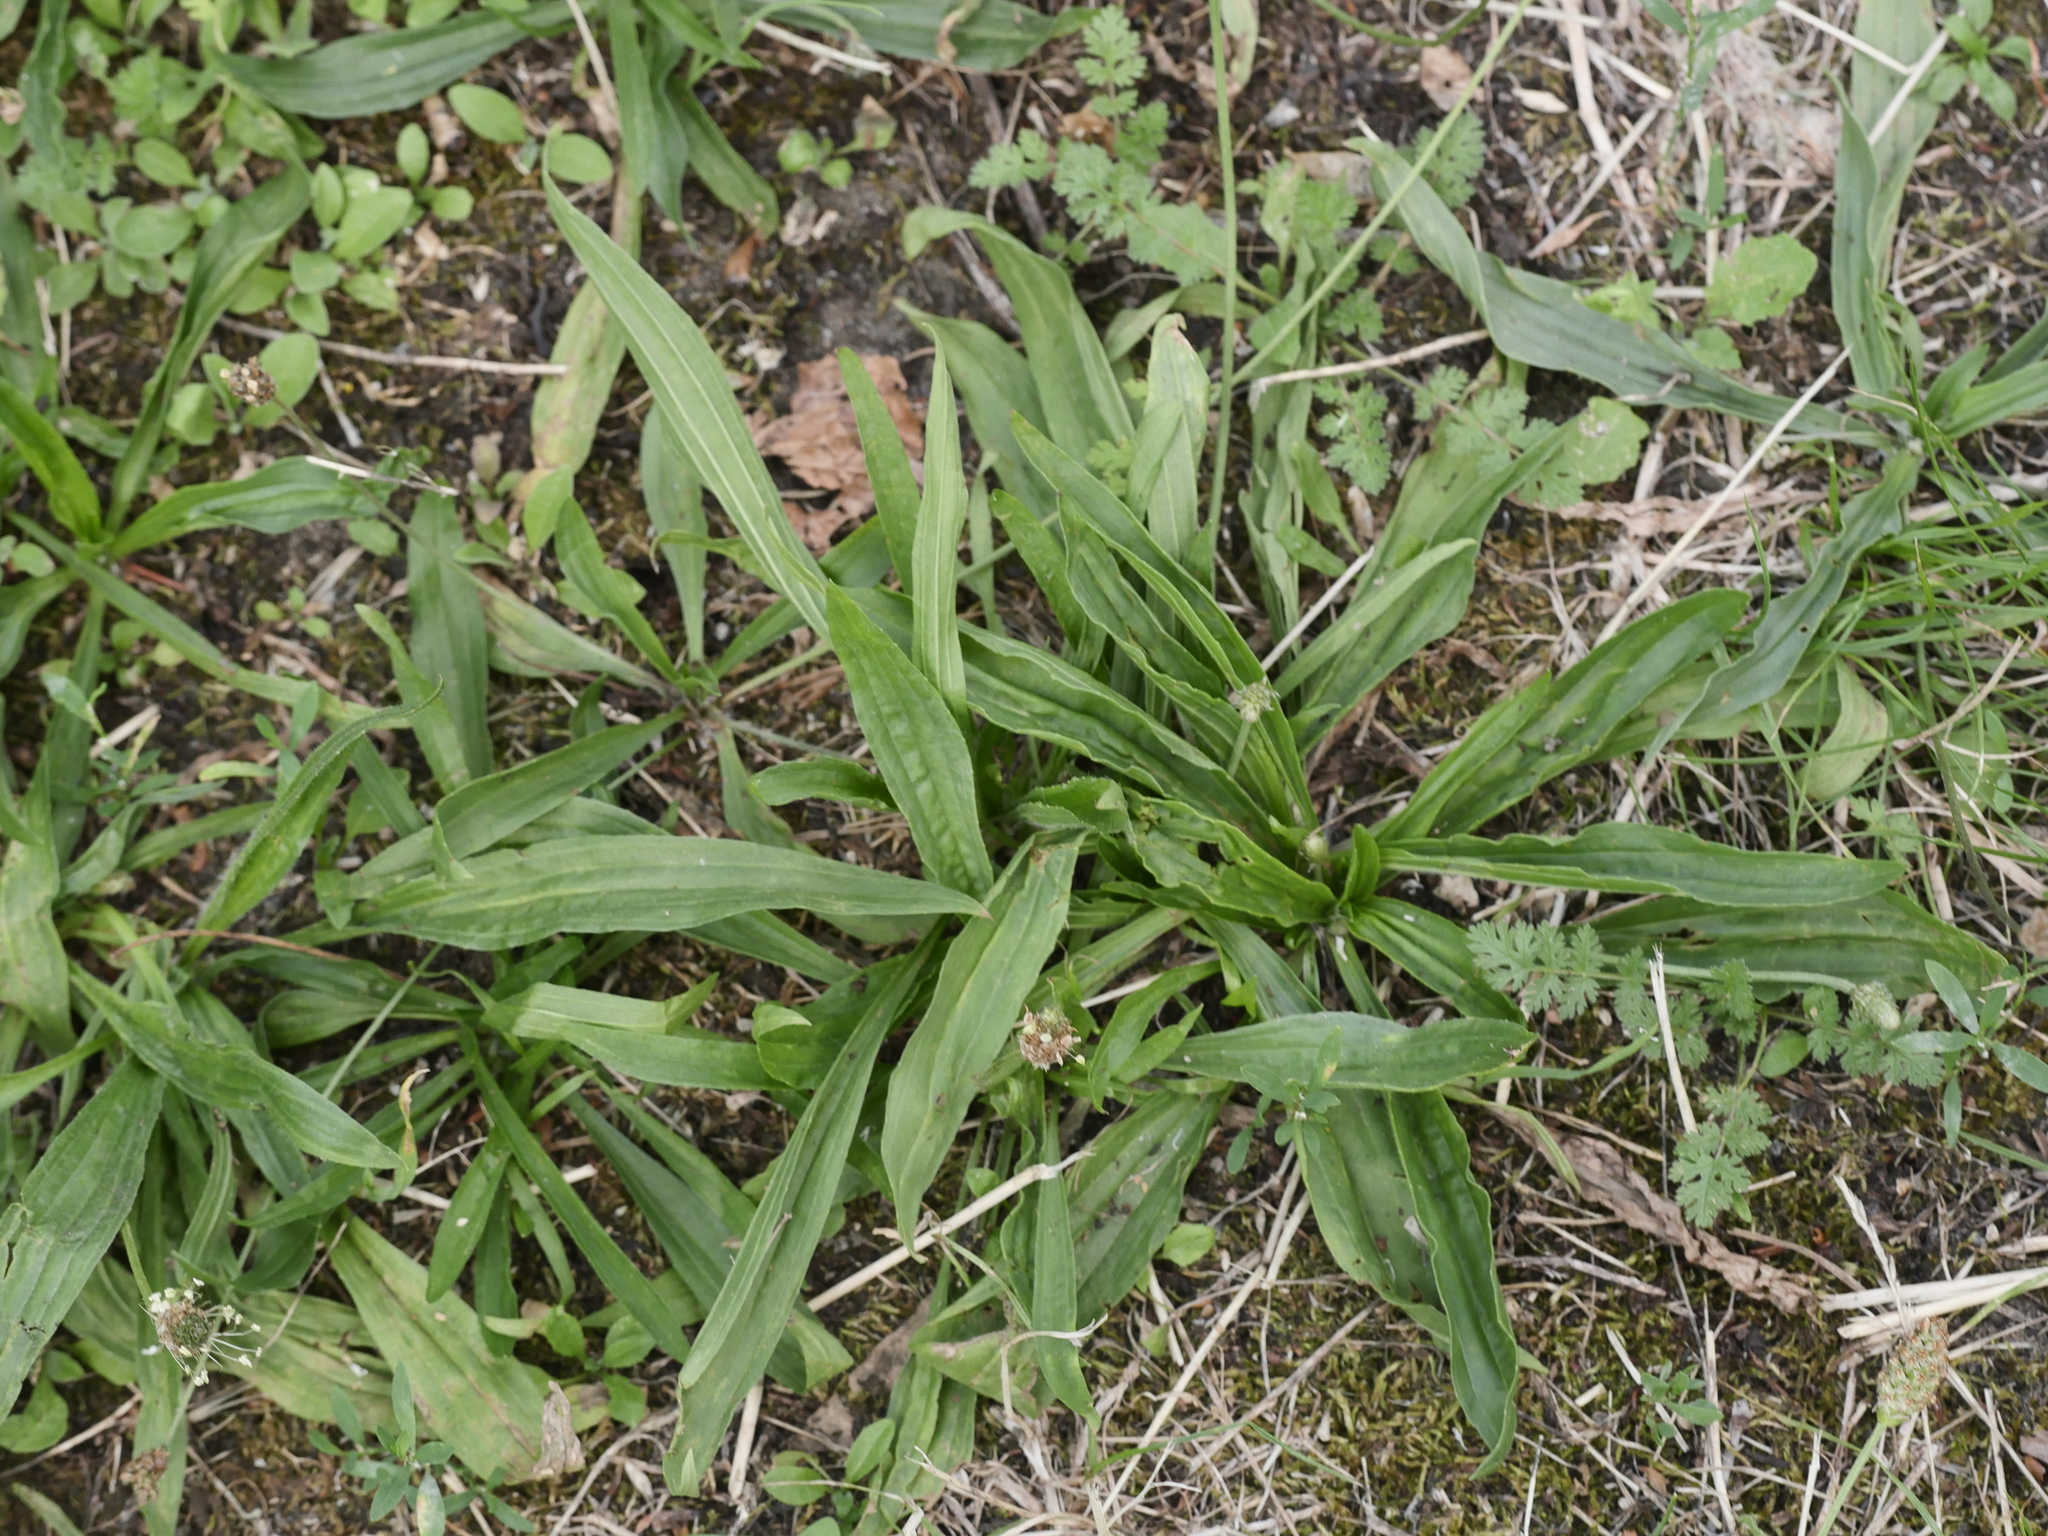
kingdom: Plantae
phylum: Tracheophyta
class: Magnoliopsida
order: Lamiales
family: Plantaginaceae
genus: Plantago
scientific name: Plantago lanceolata
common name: Ribwort plantain
